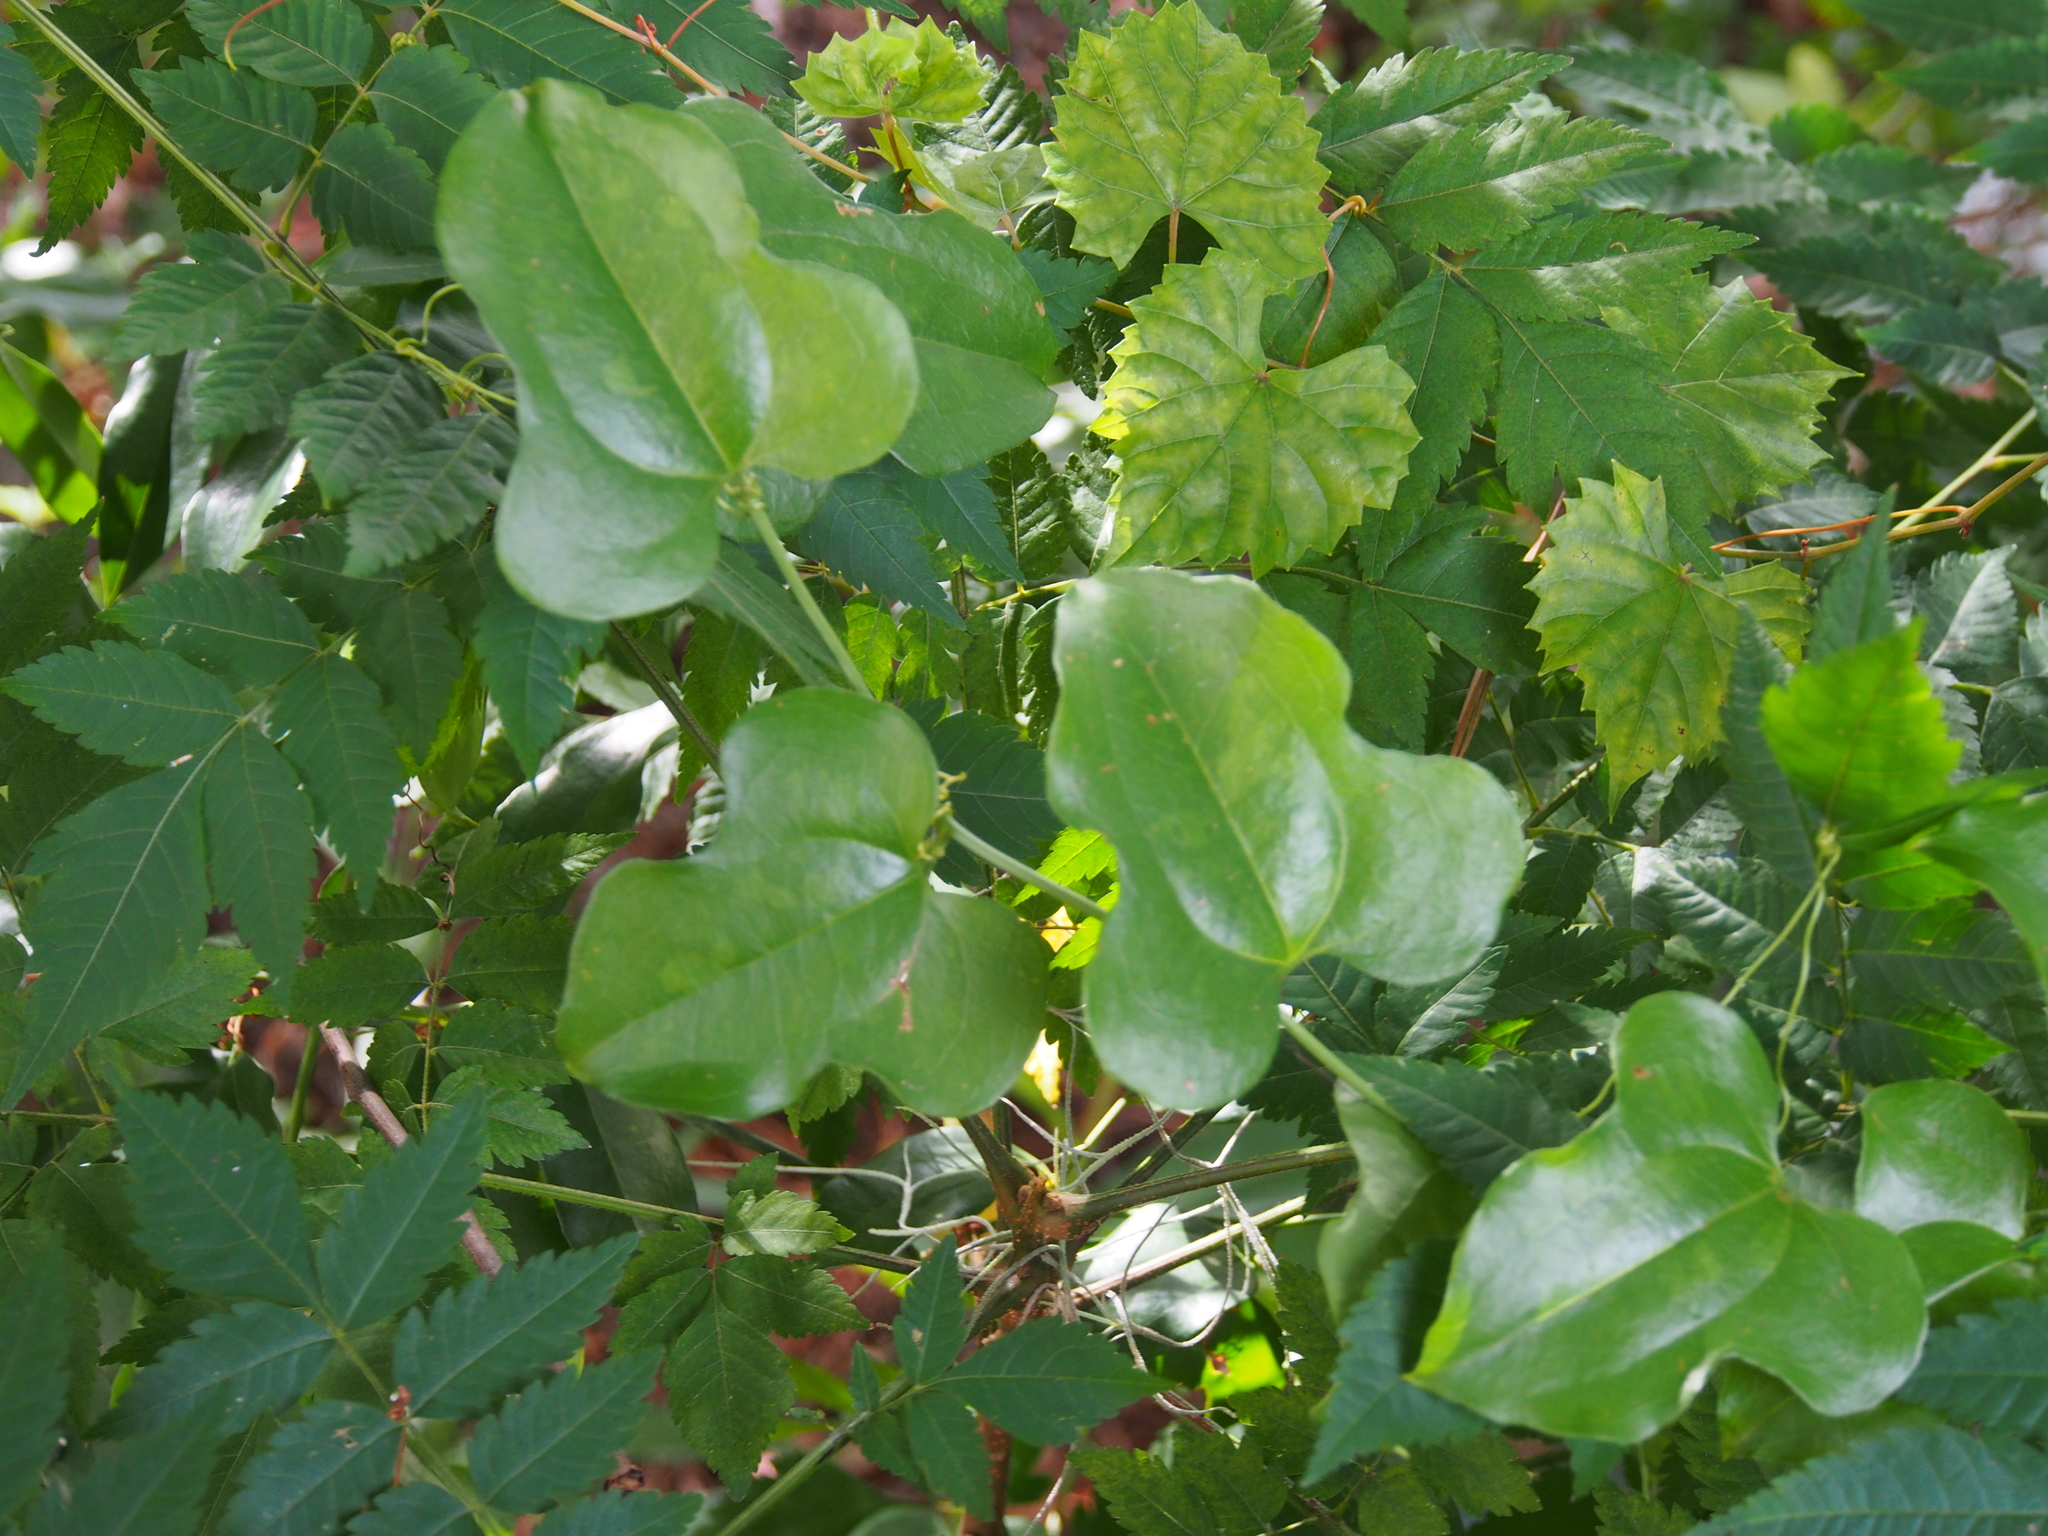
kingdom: Plantae
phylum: Tracheophyta
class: Liliopsida
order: Liliales
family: Smilacaceae
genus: Smilax
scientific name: Smilax tamnoides
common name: Hellfetter
